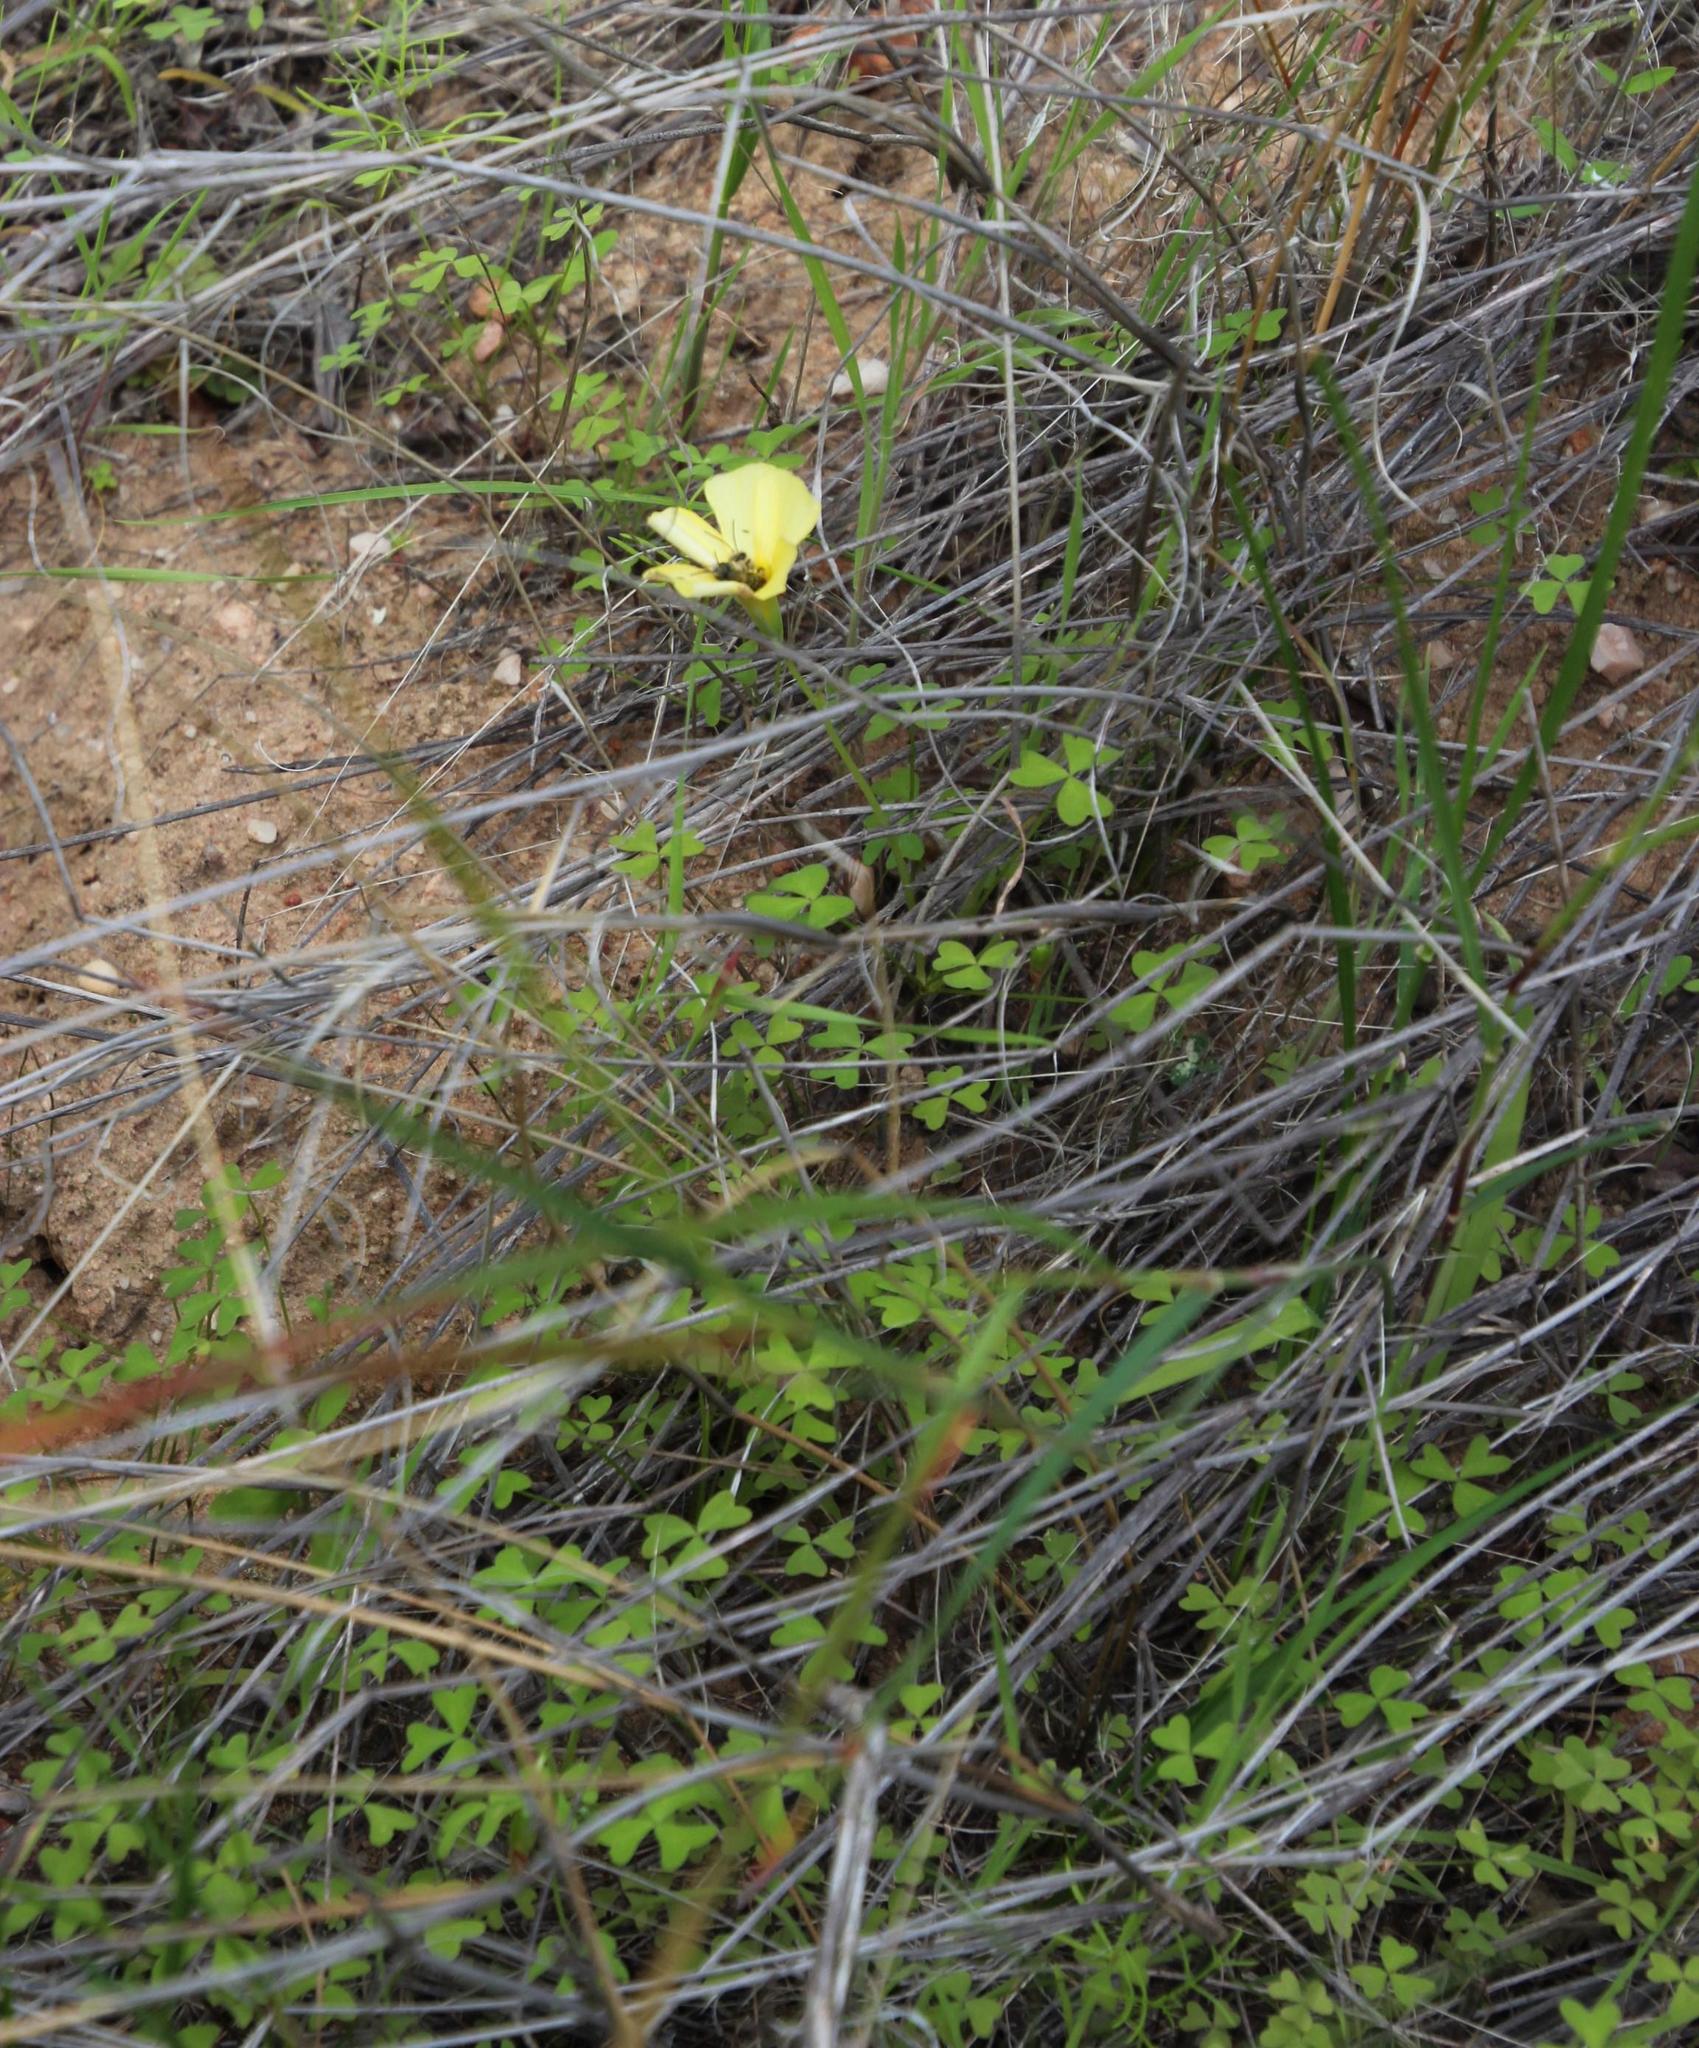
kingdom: Plantae
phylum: Tracheophyta
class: Magnoliopsida
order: Oxalidales
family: Oxalidaceae
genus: Oxalis
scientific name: Oxalis obtusa
